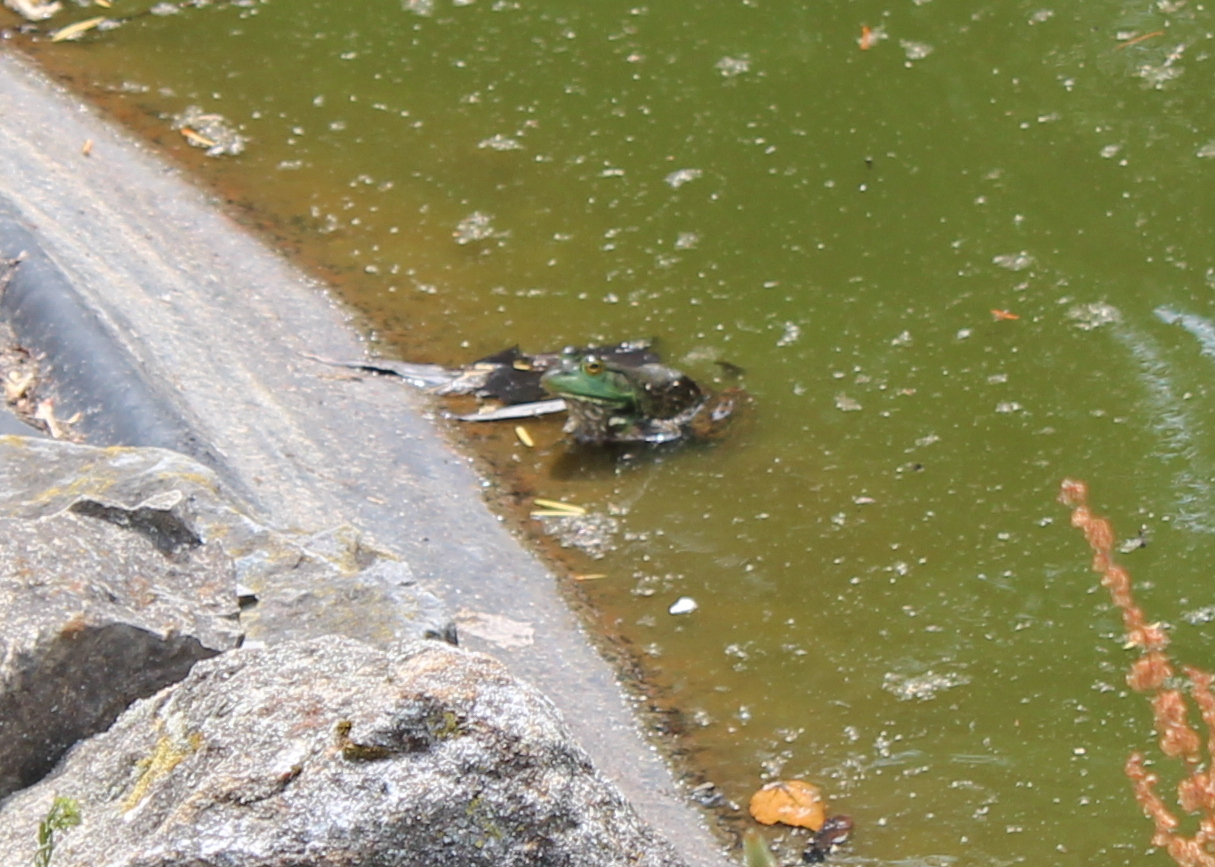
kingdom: Animalia
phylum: Chordata
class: Amphibia
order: Anura
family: Ranidae
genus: Lithobates
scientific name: Lithobates catesbeianus
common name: American bullfrog
